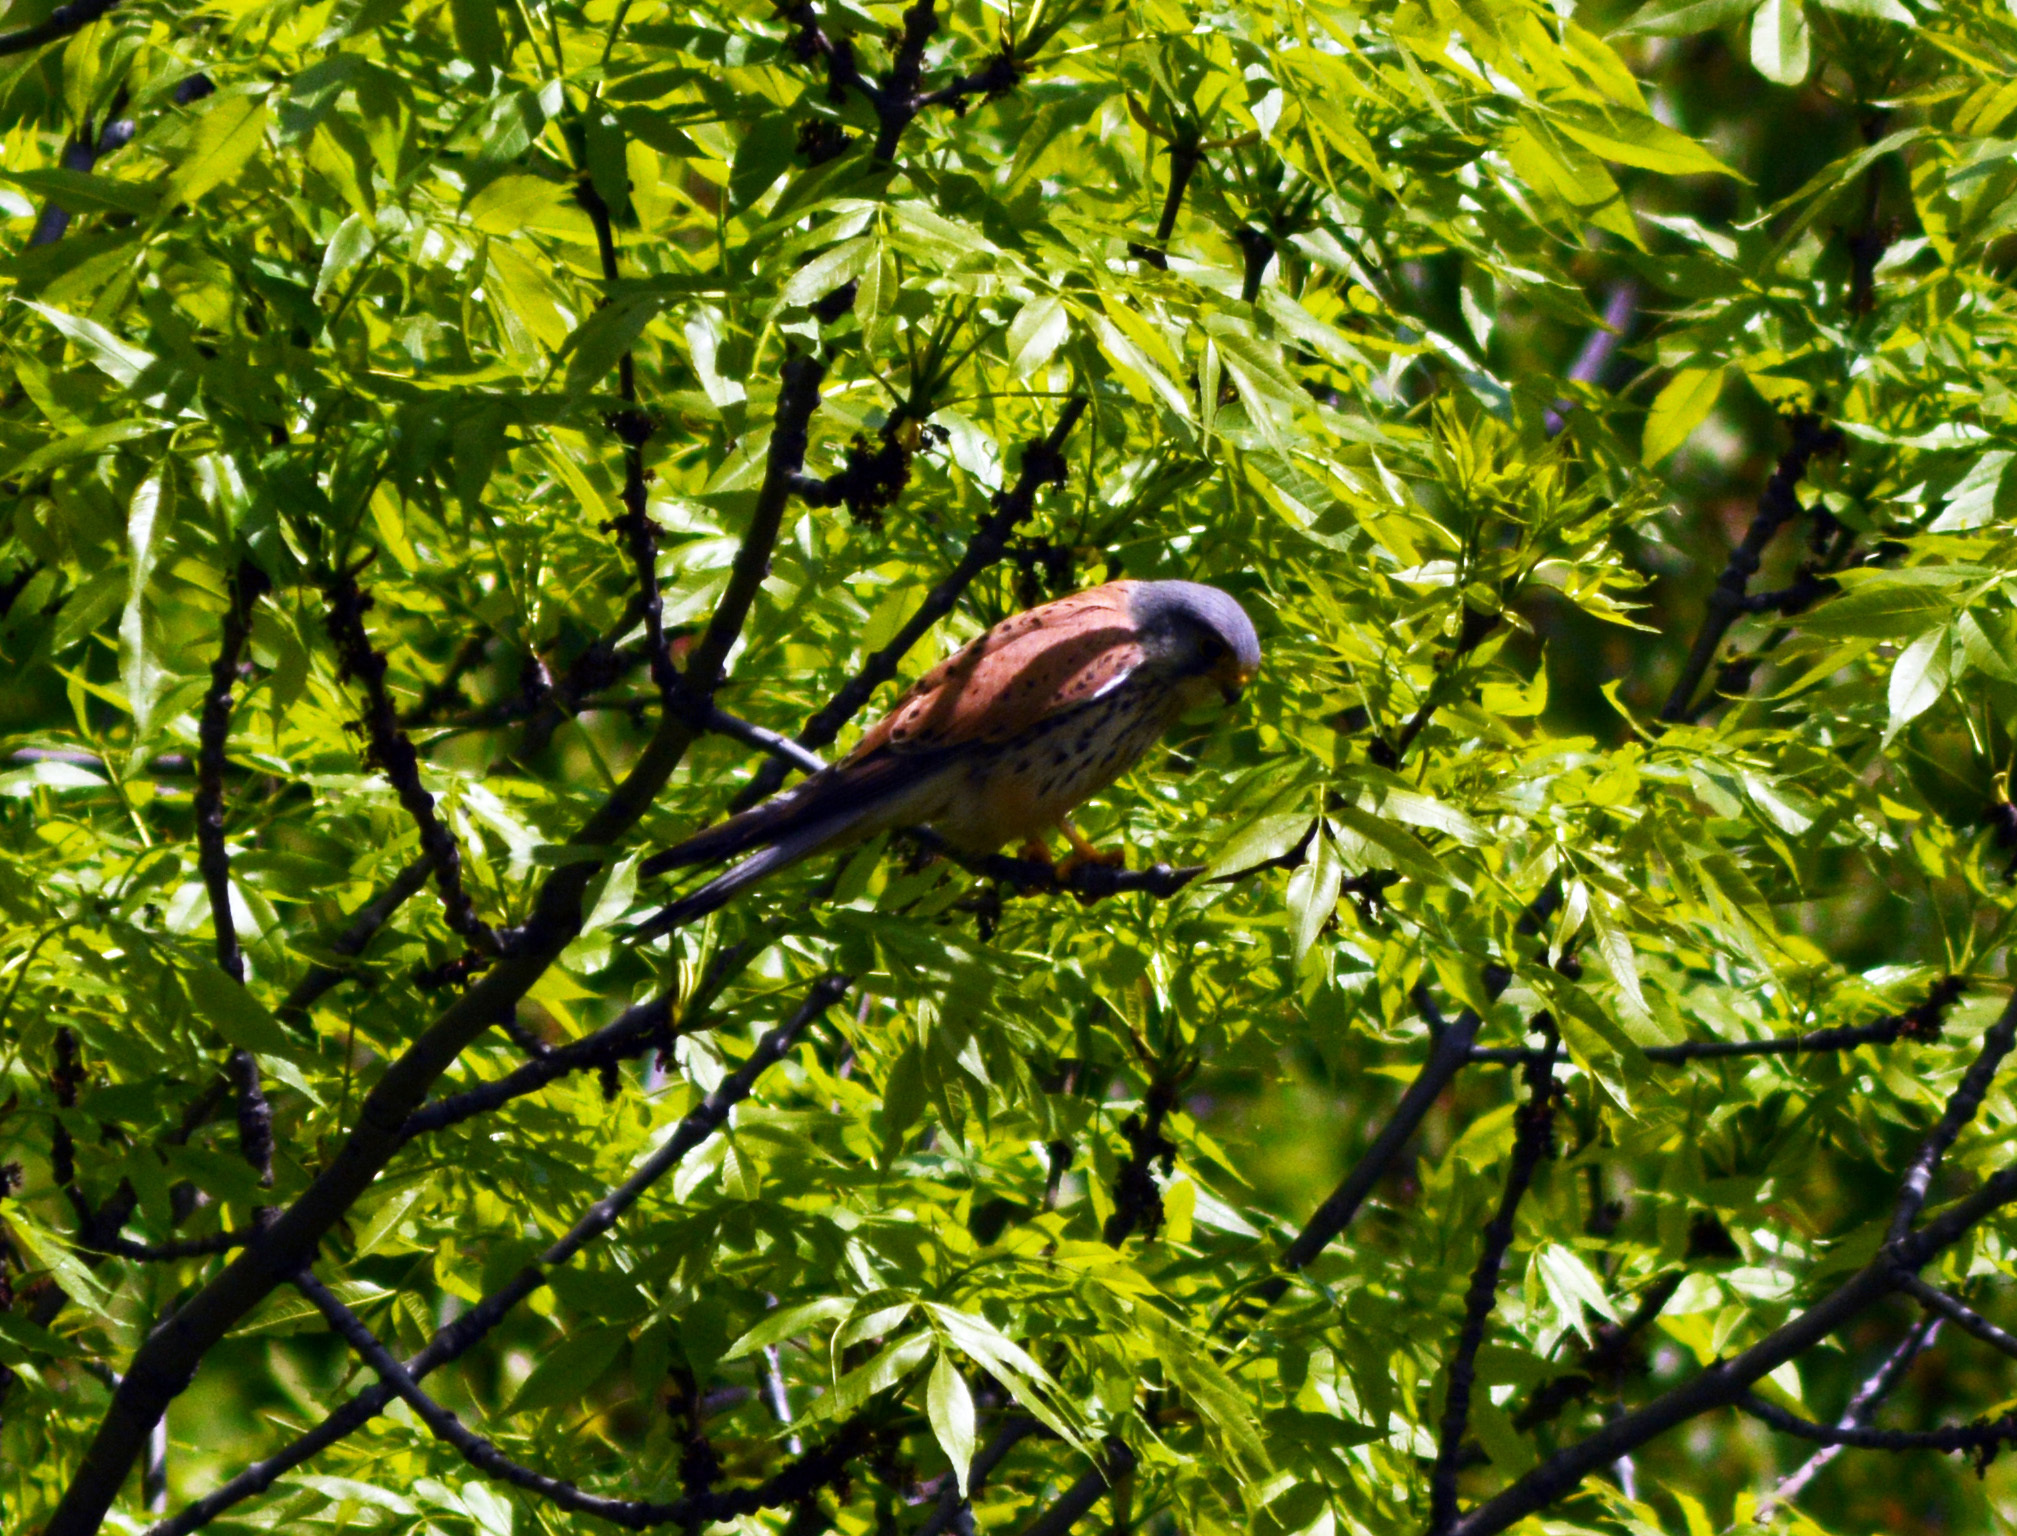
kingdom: Animalia
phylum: Chordata
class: Aves
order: Falconiformes
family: Falconidae
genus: Falco
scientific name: Falco tinnunculus
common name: Common kestrel
